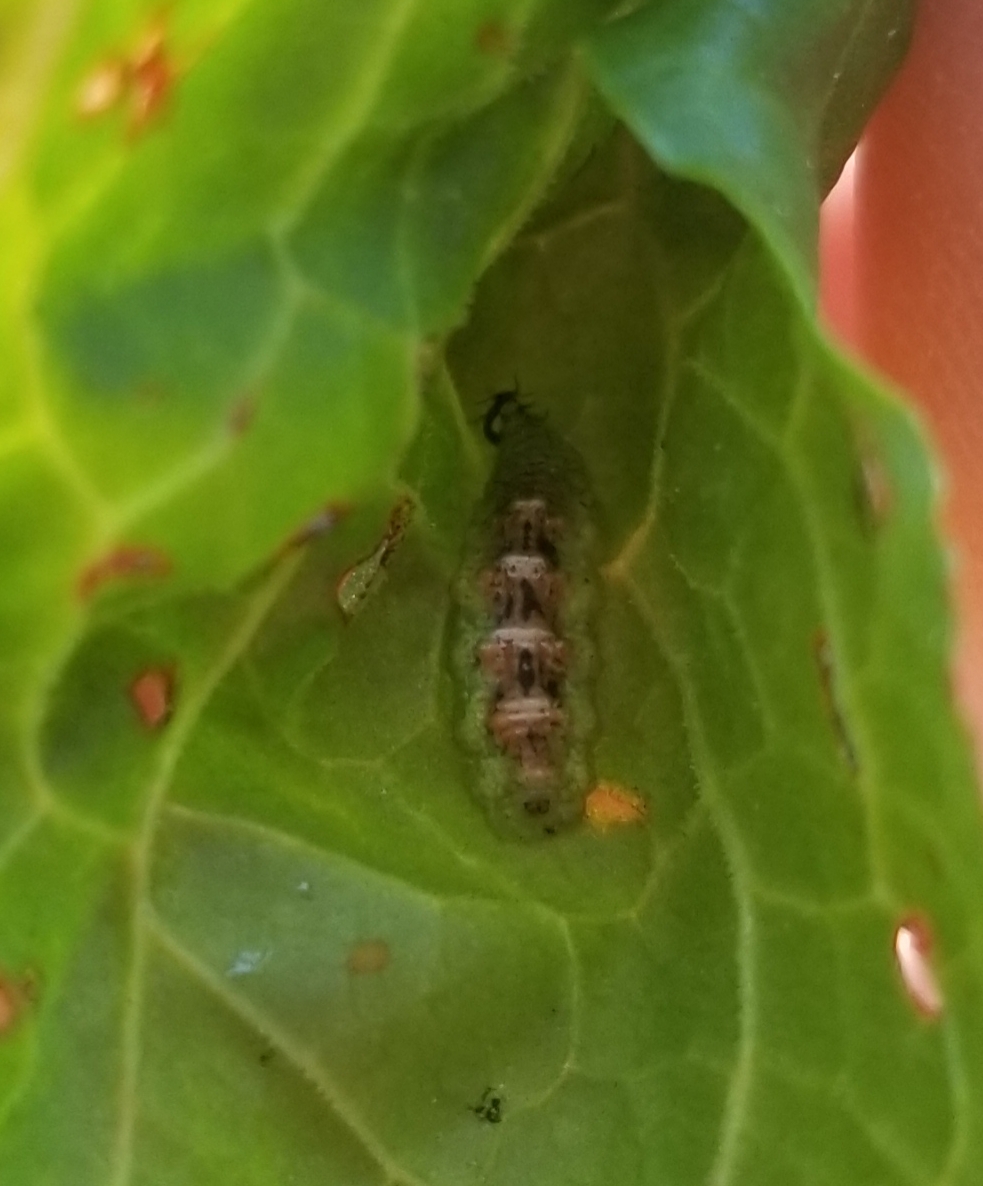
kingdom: Animalia
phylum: Arthropoda
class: Insecta
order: Diptera
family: Syrphidae
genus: Eupeodes
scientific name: Eupeodes pomus
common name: Short-tailed aphideater
